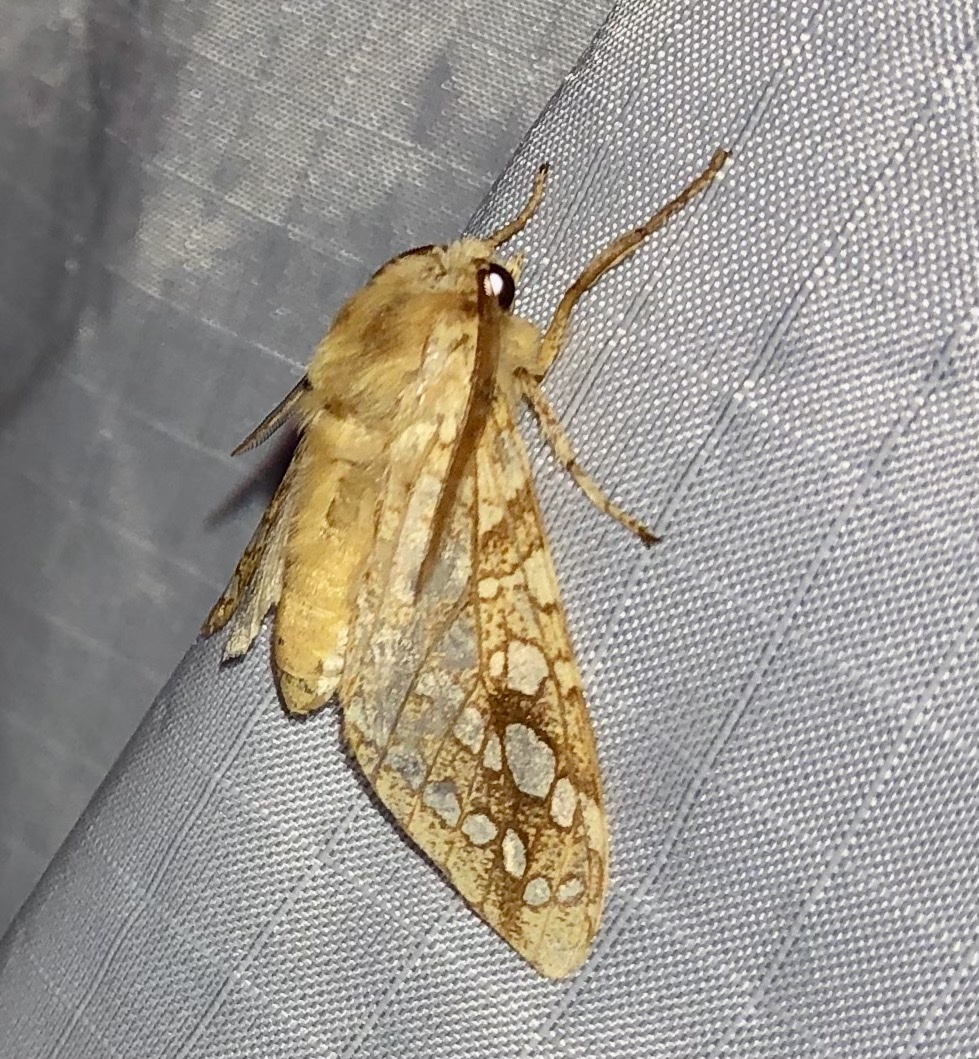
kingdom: Animalia
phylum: Arthropoda
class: Insecta
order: Lepidoptera
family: Erebidae
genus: Lophocampa
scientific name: Lophocampa caryae
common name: Hickory tussock moth
